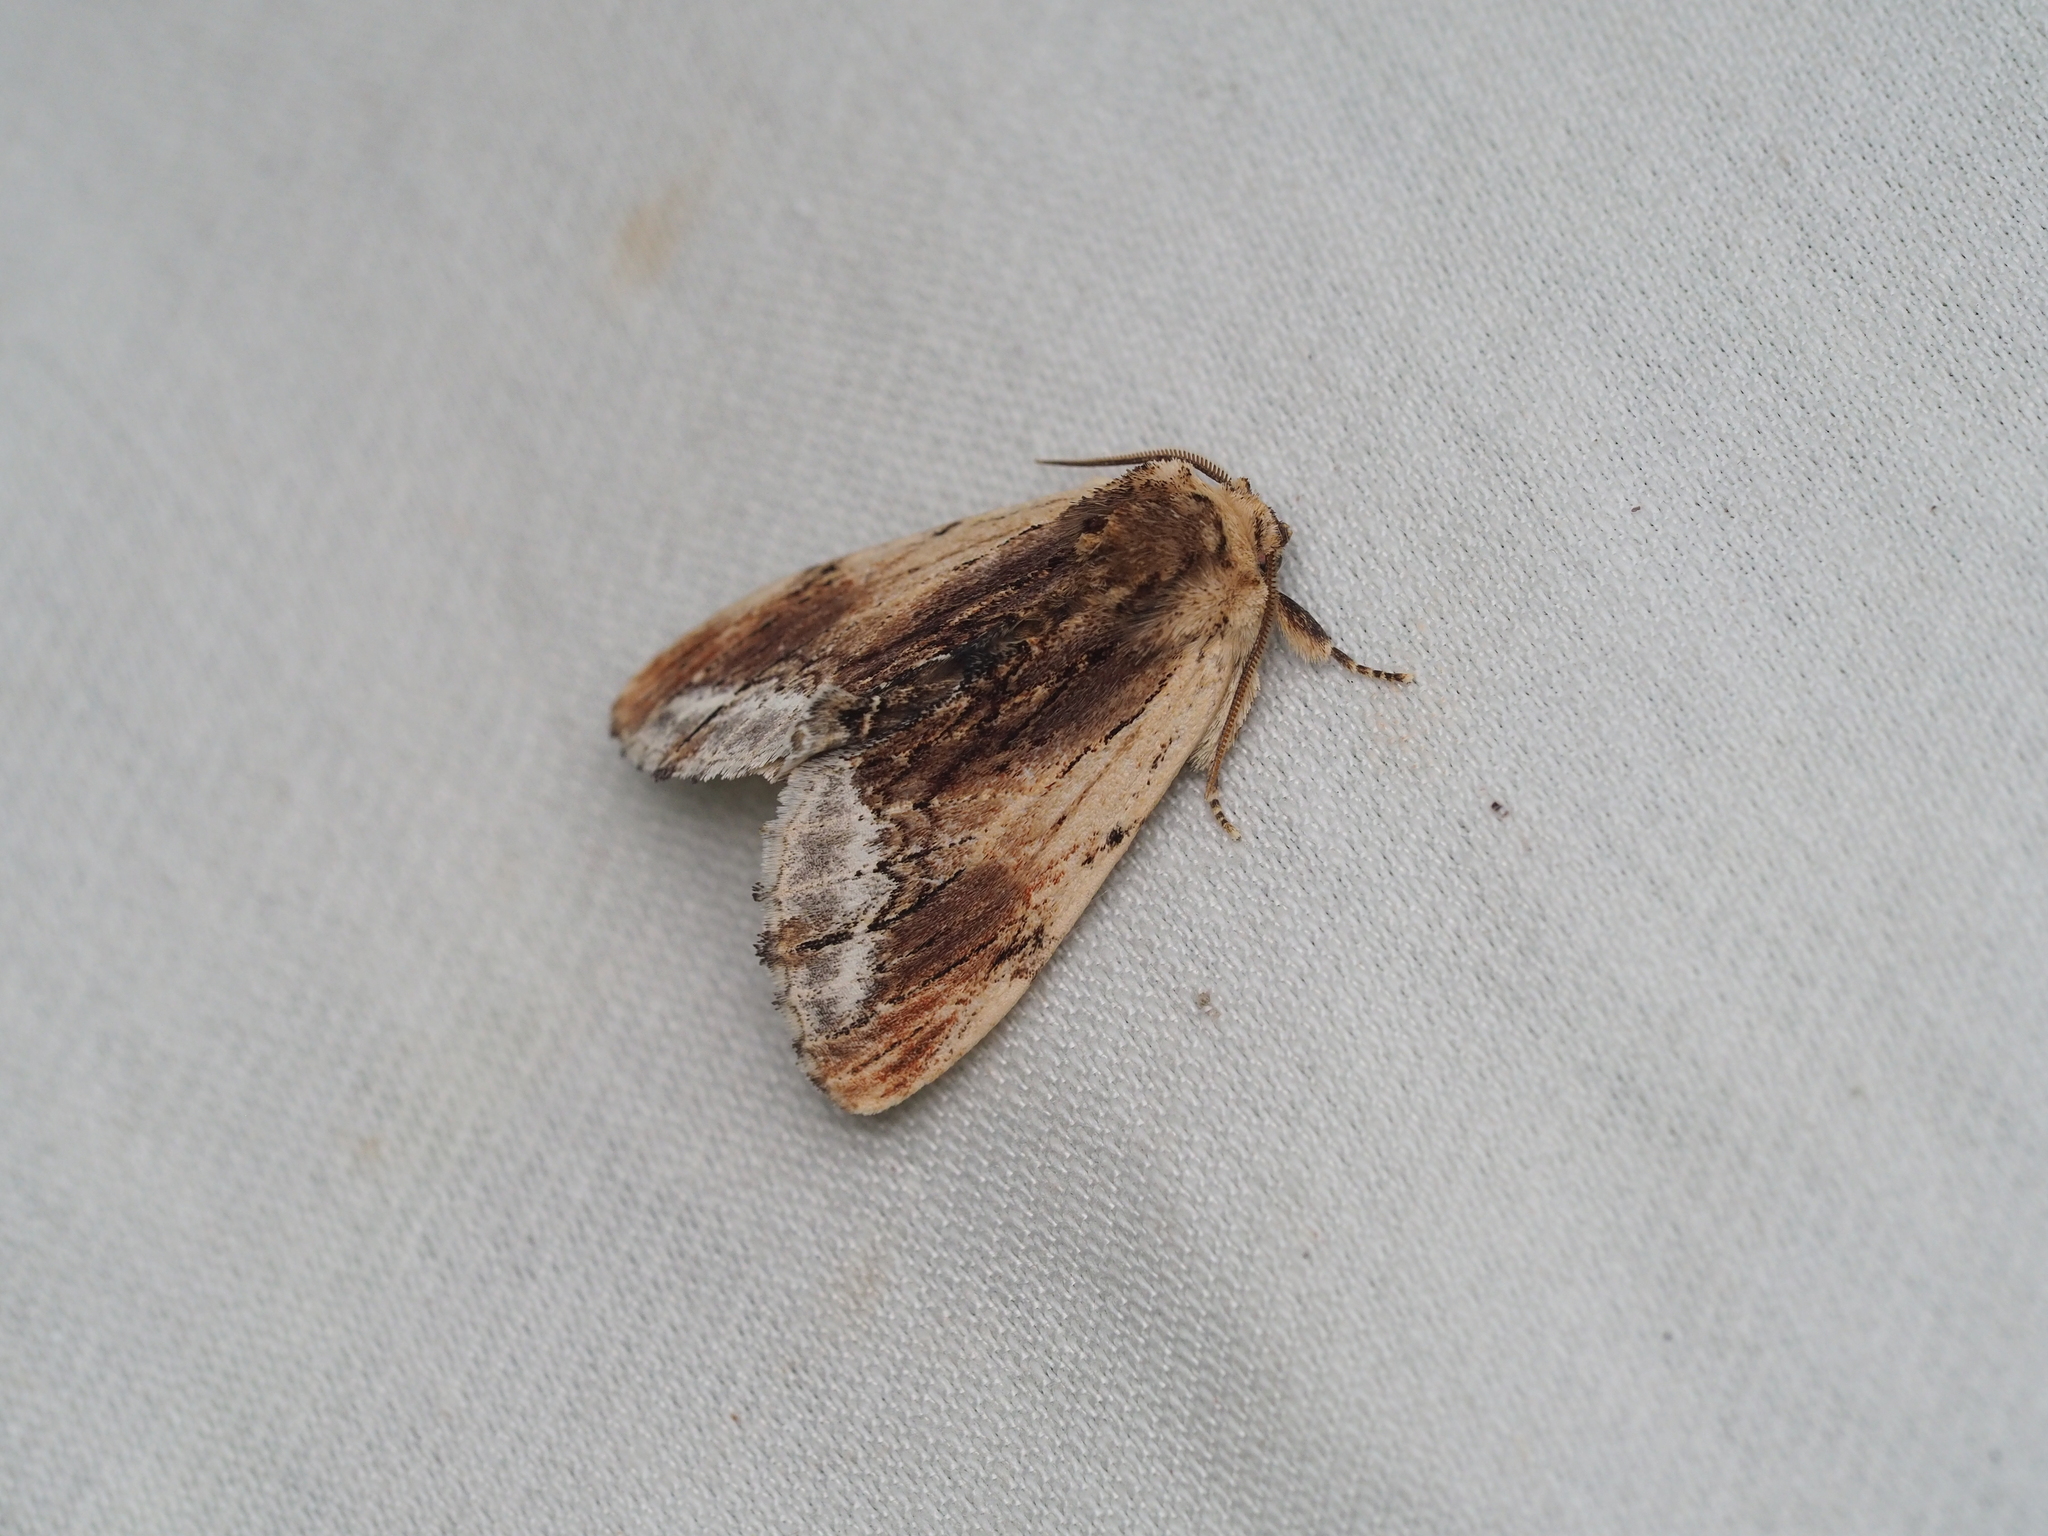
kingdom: Animalia
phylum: Arthropoda
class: Insecta
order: Lepidoptera
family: Notodontidae
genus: Ptilodon
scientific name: Ptilodon cucullina
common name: Maple prominent
